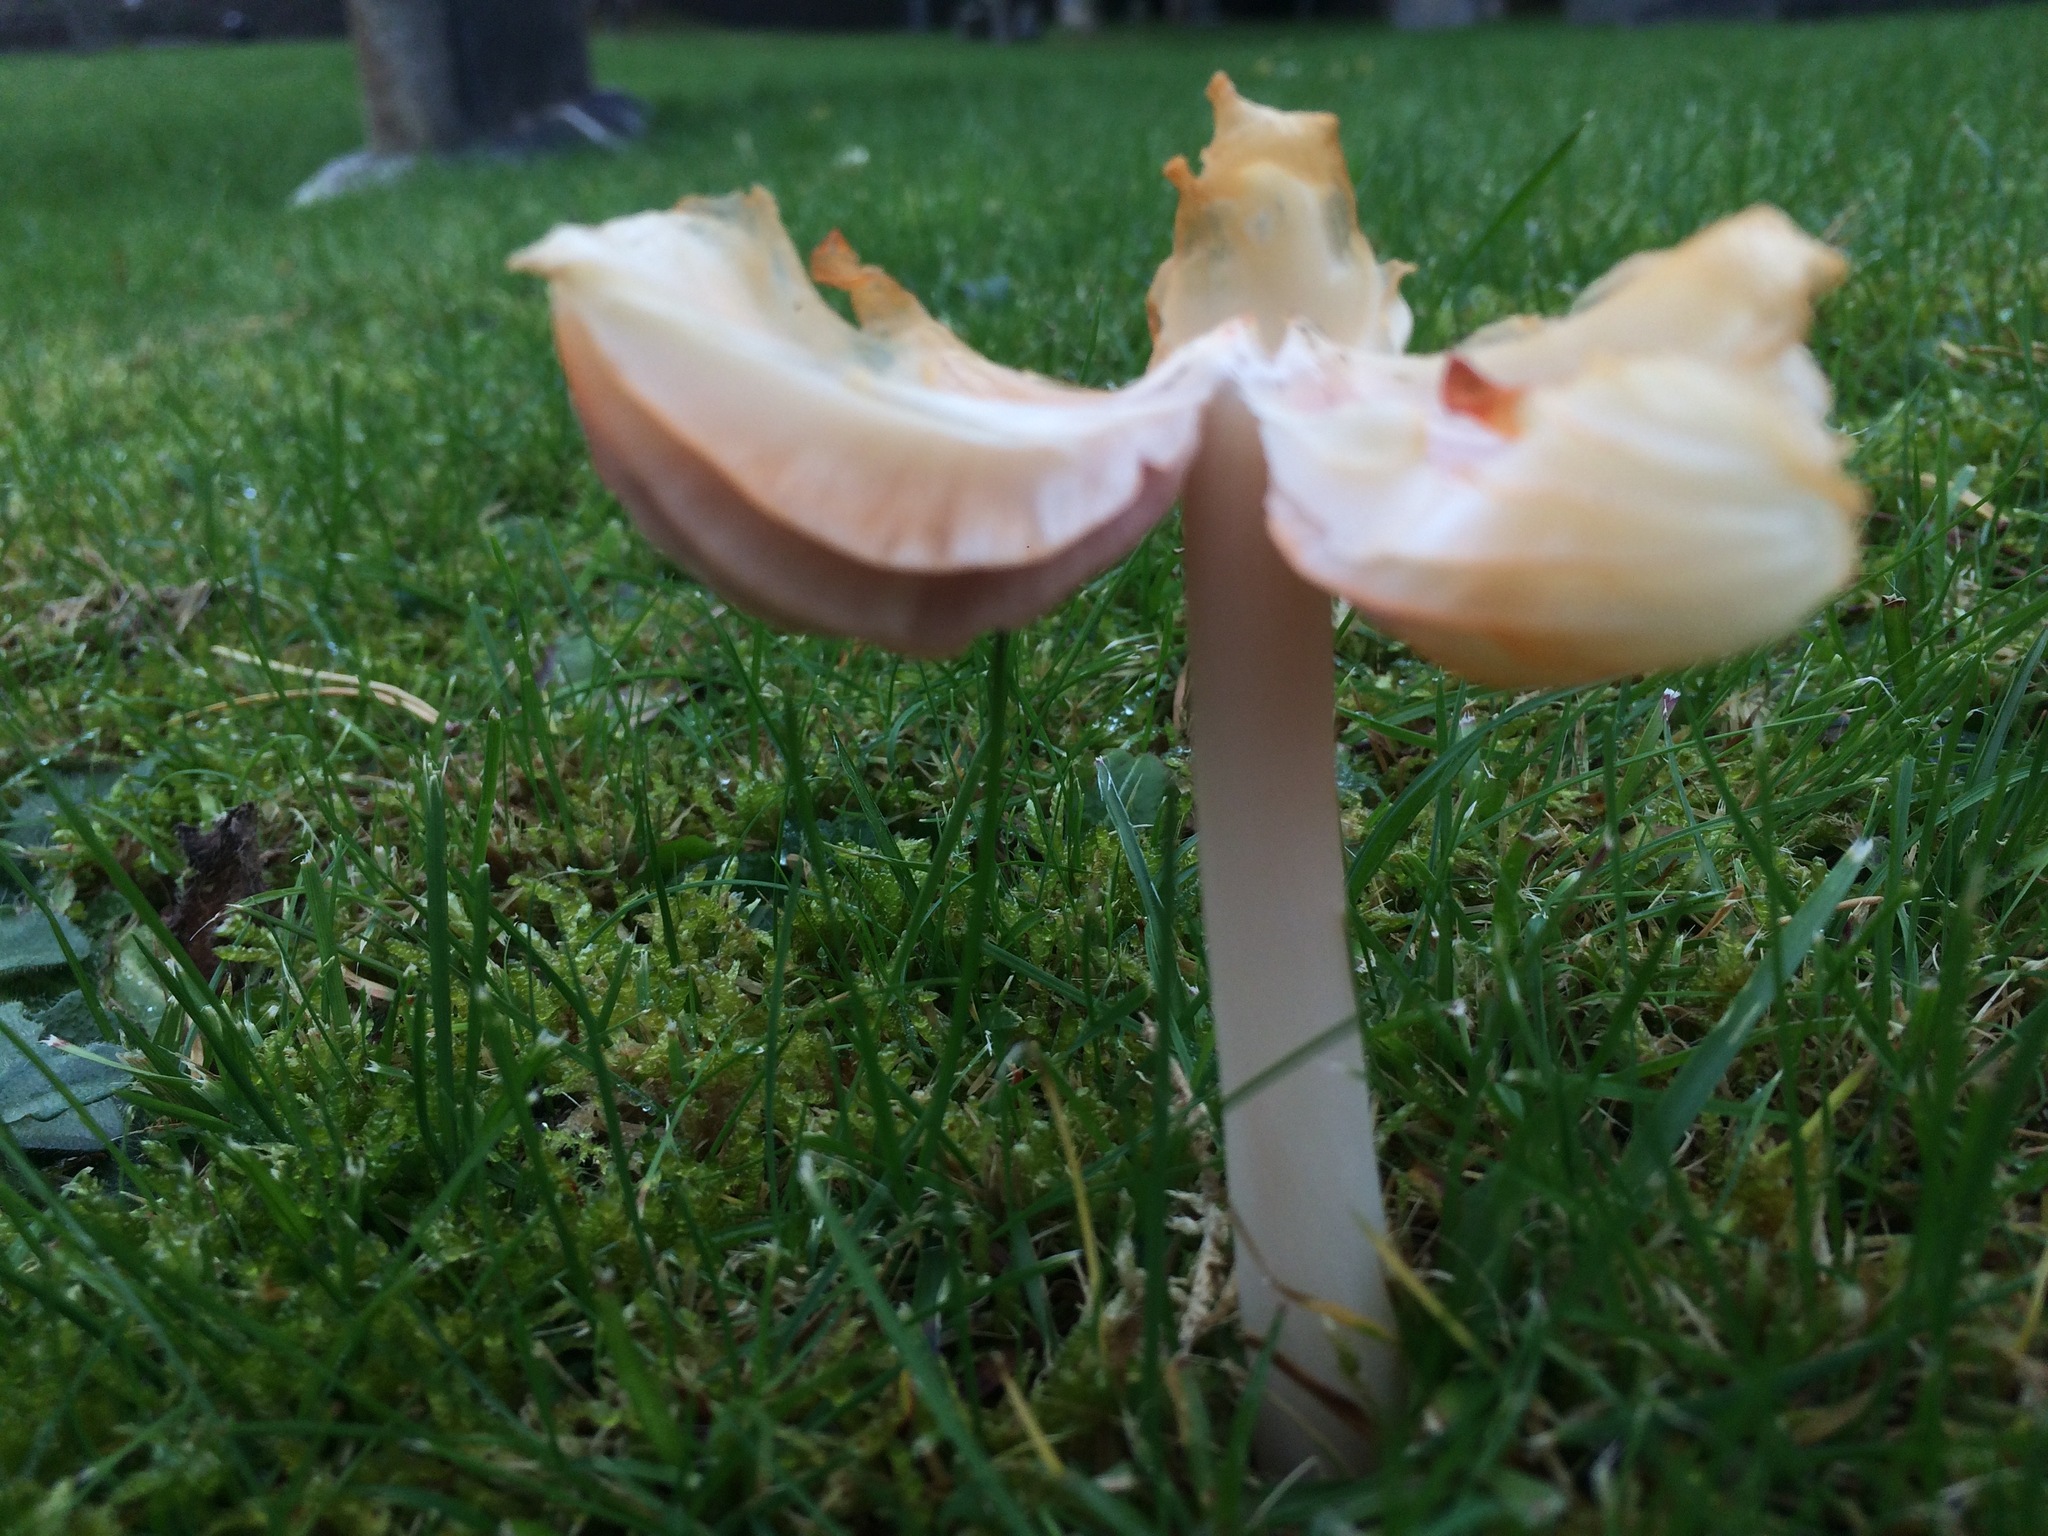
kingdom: Fungi
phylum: Basidiomycota
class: Agaricomycetes
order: Agaricales
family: Hygrophoraceae
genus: Porpolomopsis
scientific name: Porpolomopsis calyptriformis
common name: Pink waxcap
